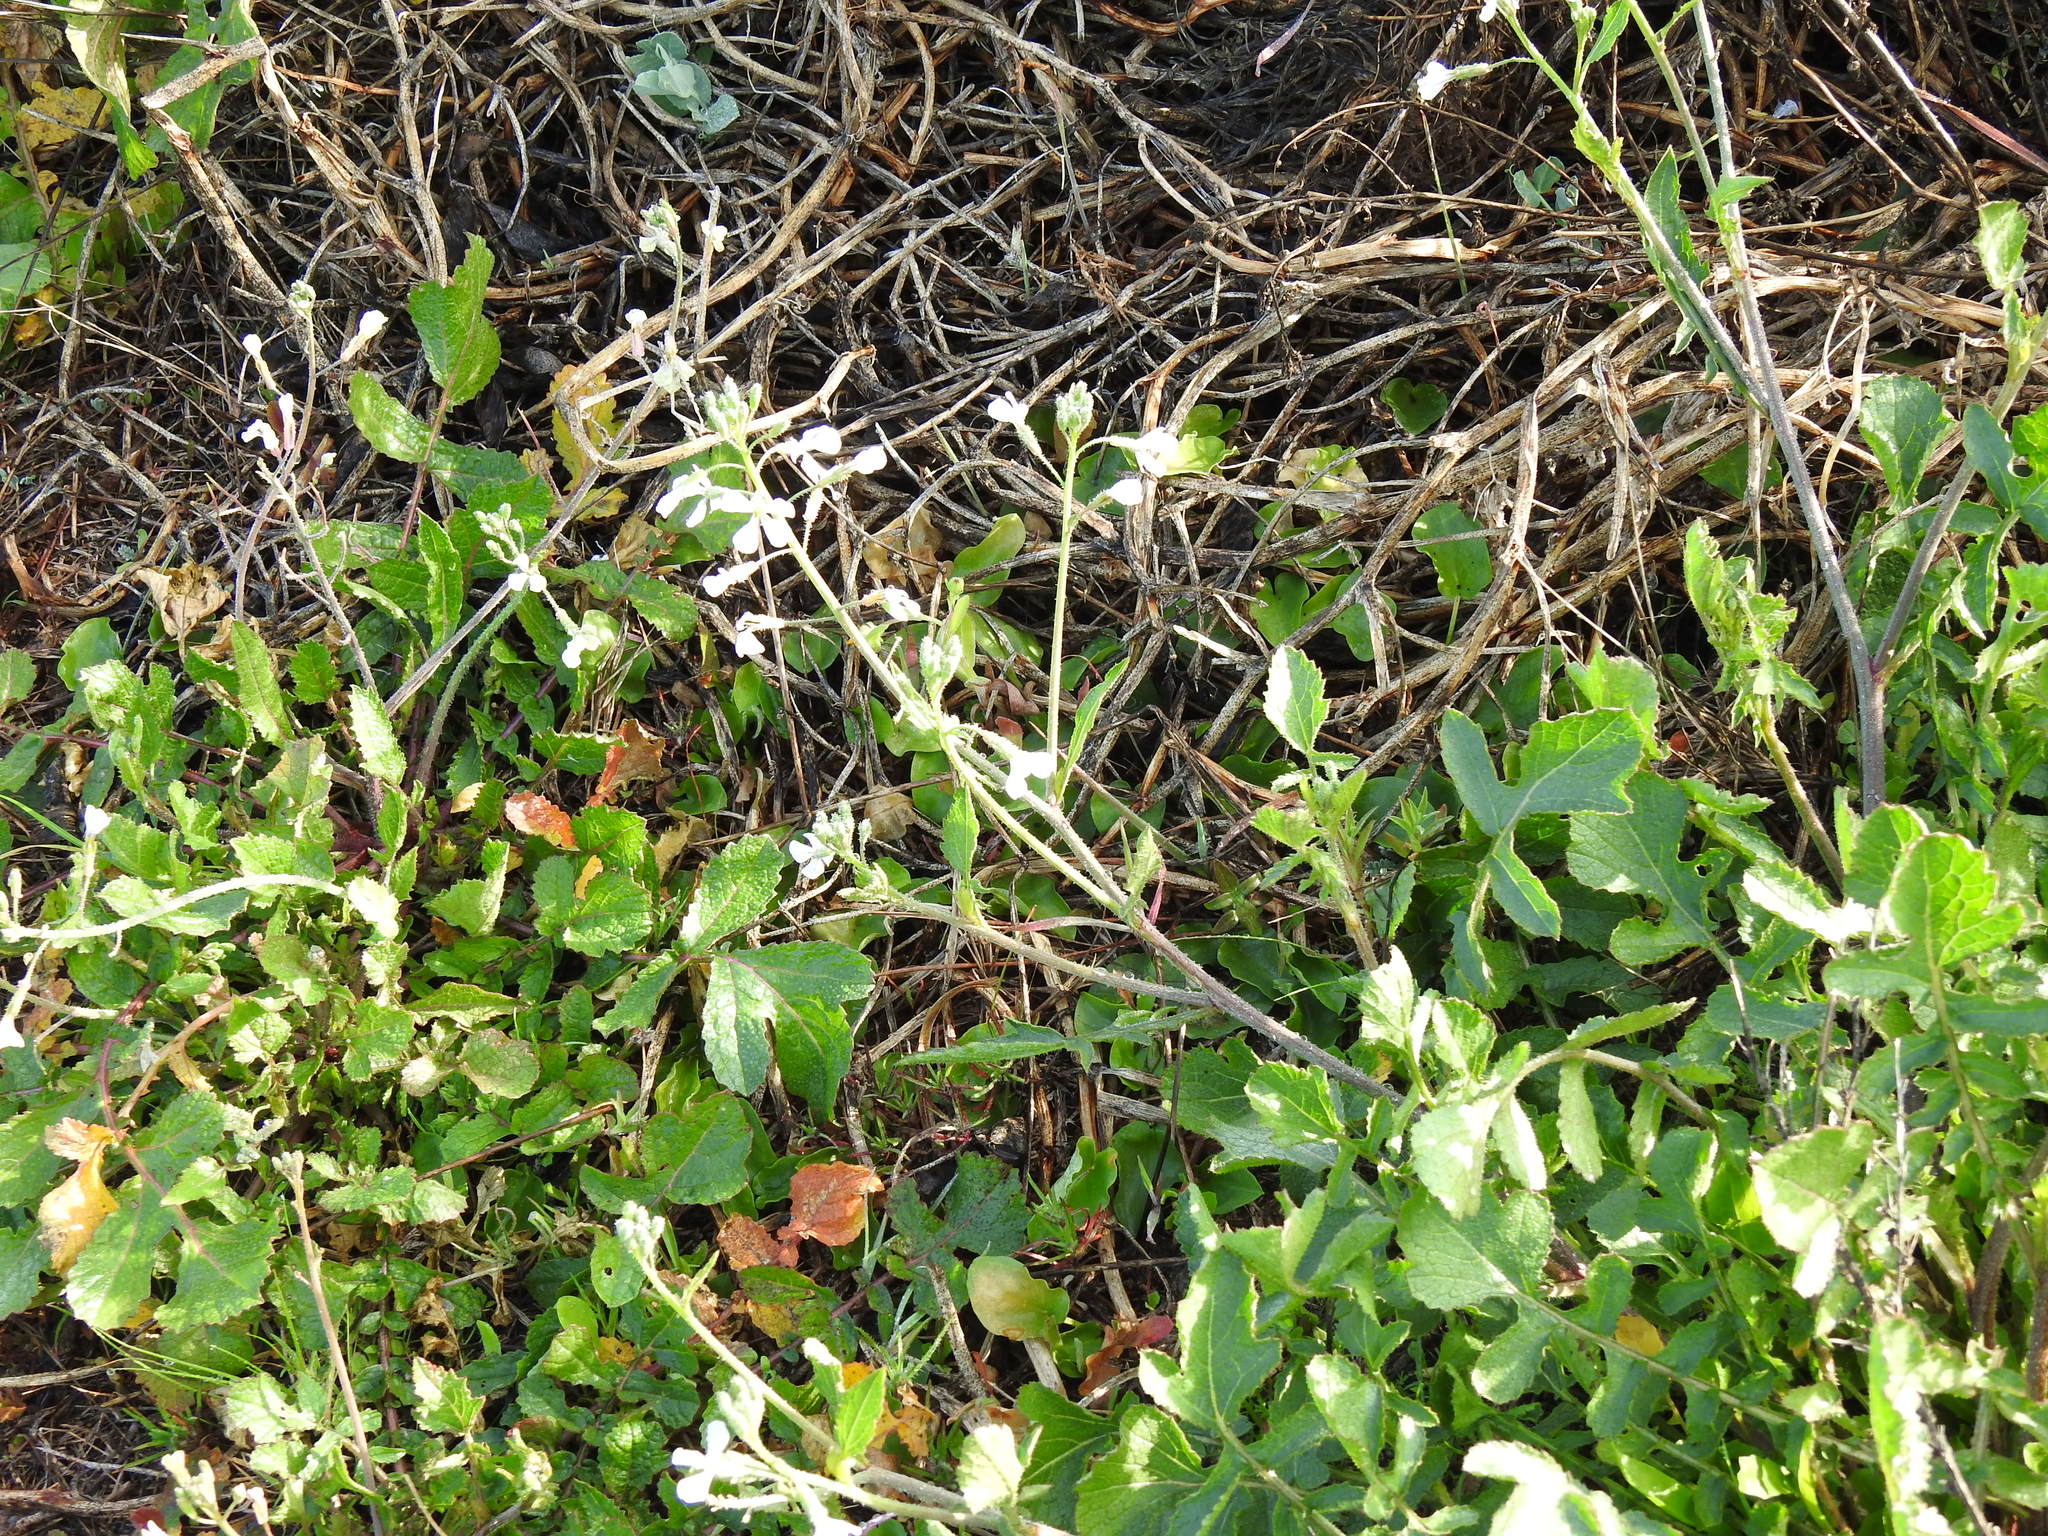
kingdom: Plantae
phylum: Tracheophyta
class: Magnoliopsida
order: Brassicales
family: Brassicaceae
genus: Raphanus
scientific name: Raphanus raphanistrum
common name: Wild radish
